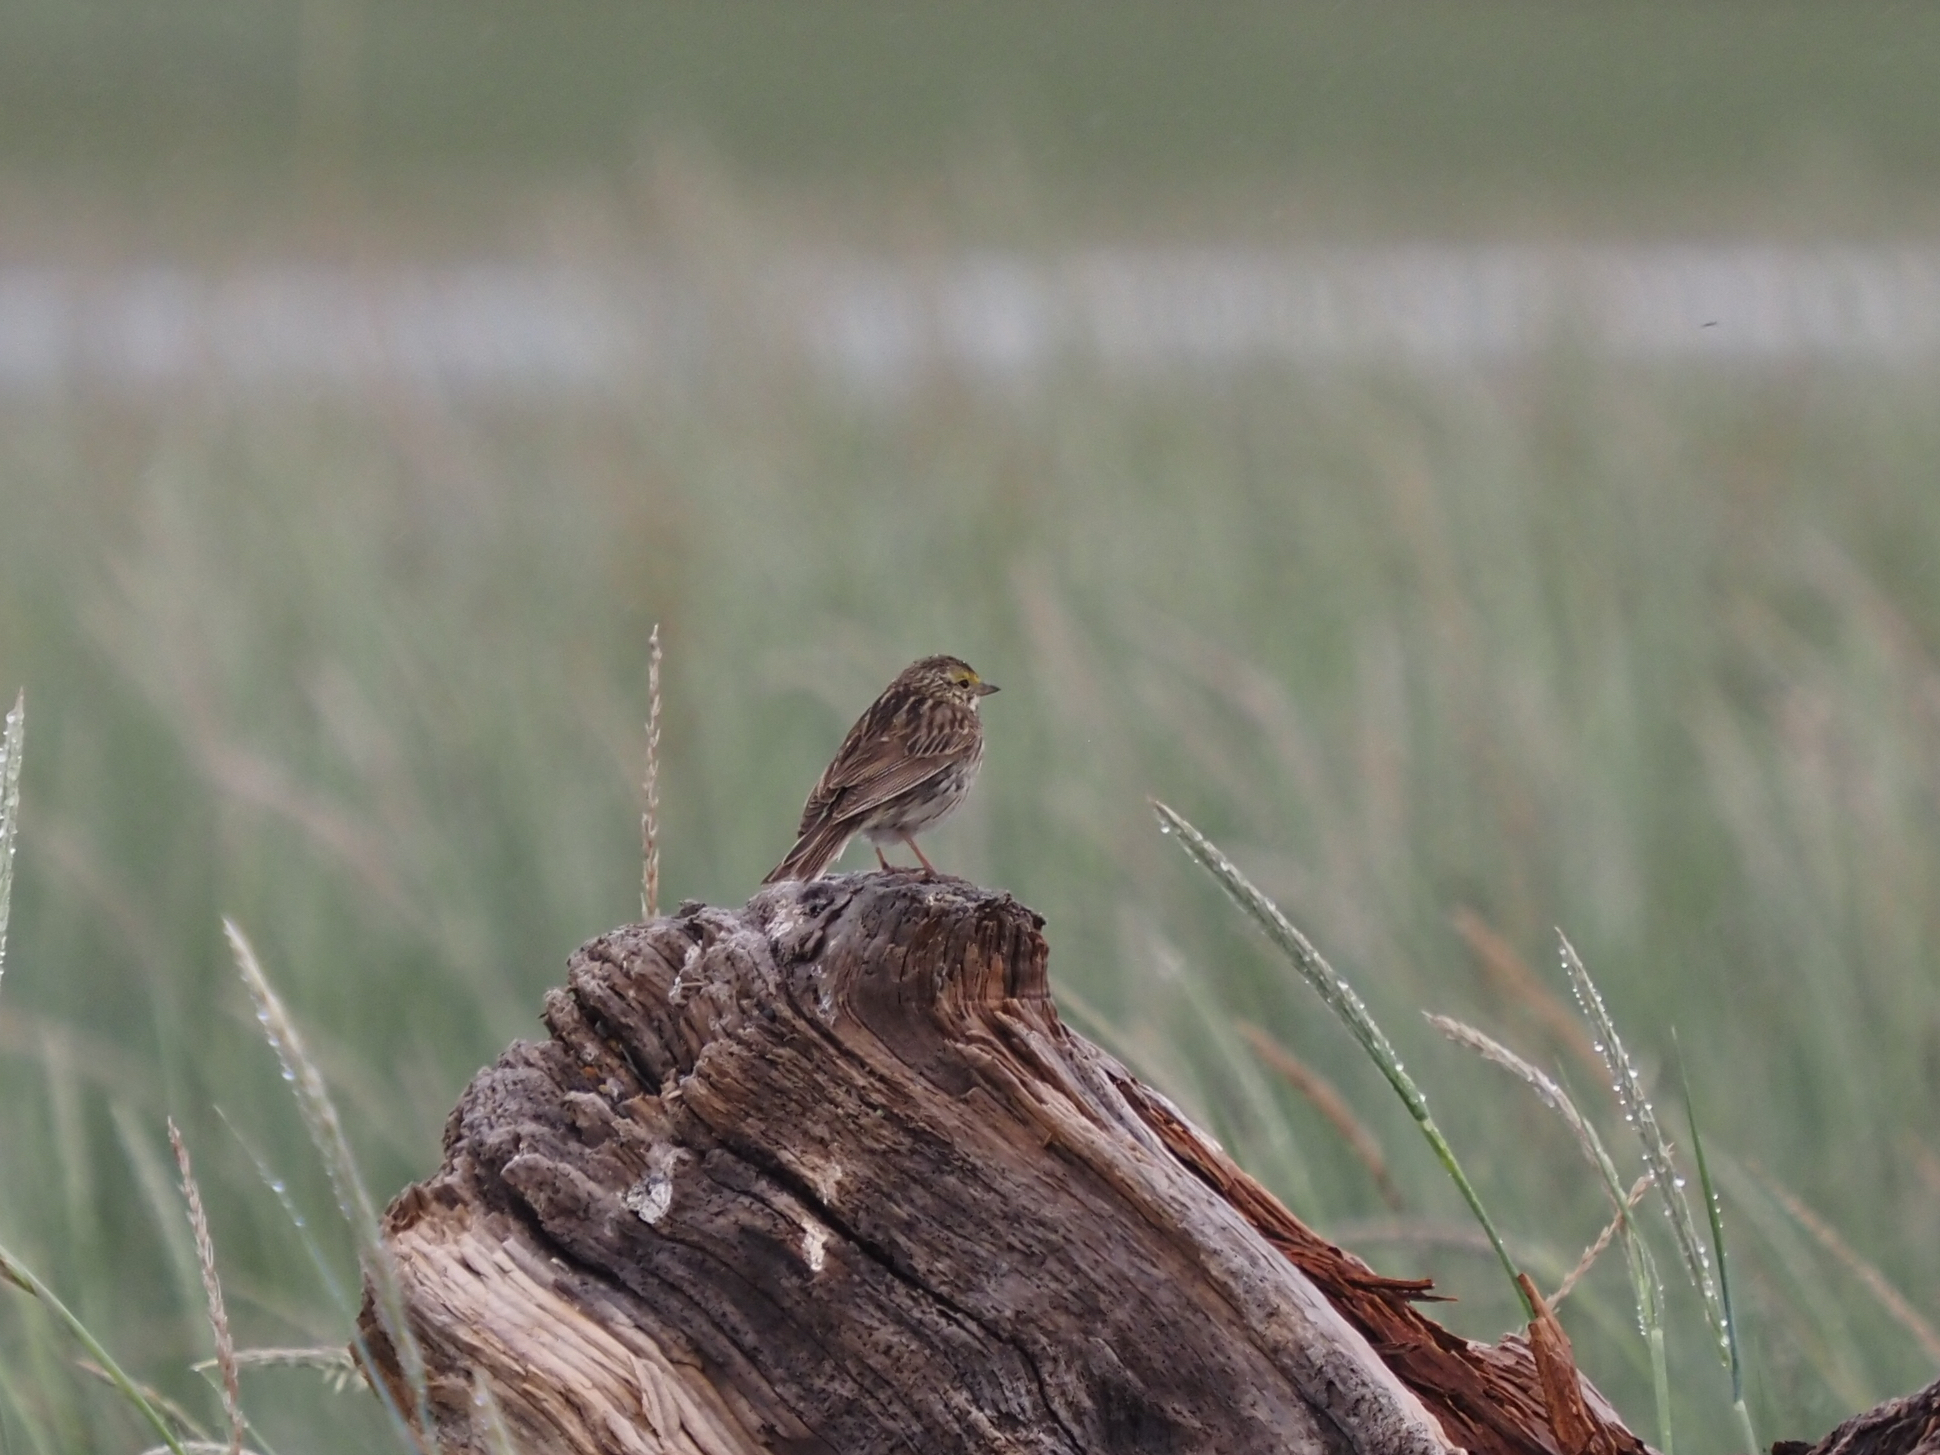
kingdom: Animalia
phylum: Chordata
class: Aves
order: Passeriformes
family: Passerellidae
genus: Passerculus
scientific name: Passerculus sandwichensis
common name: Savannah sparrow
